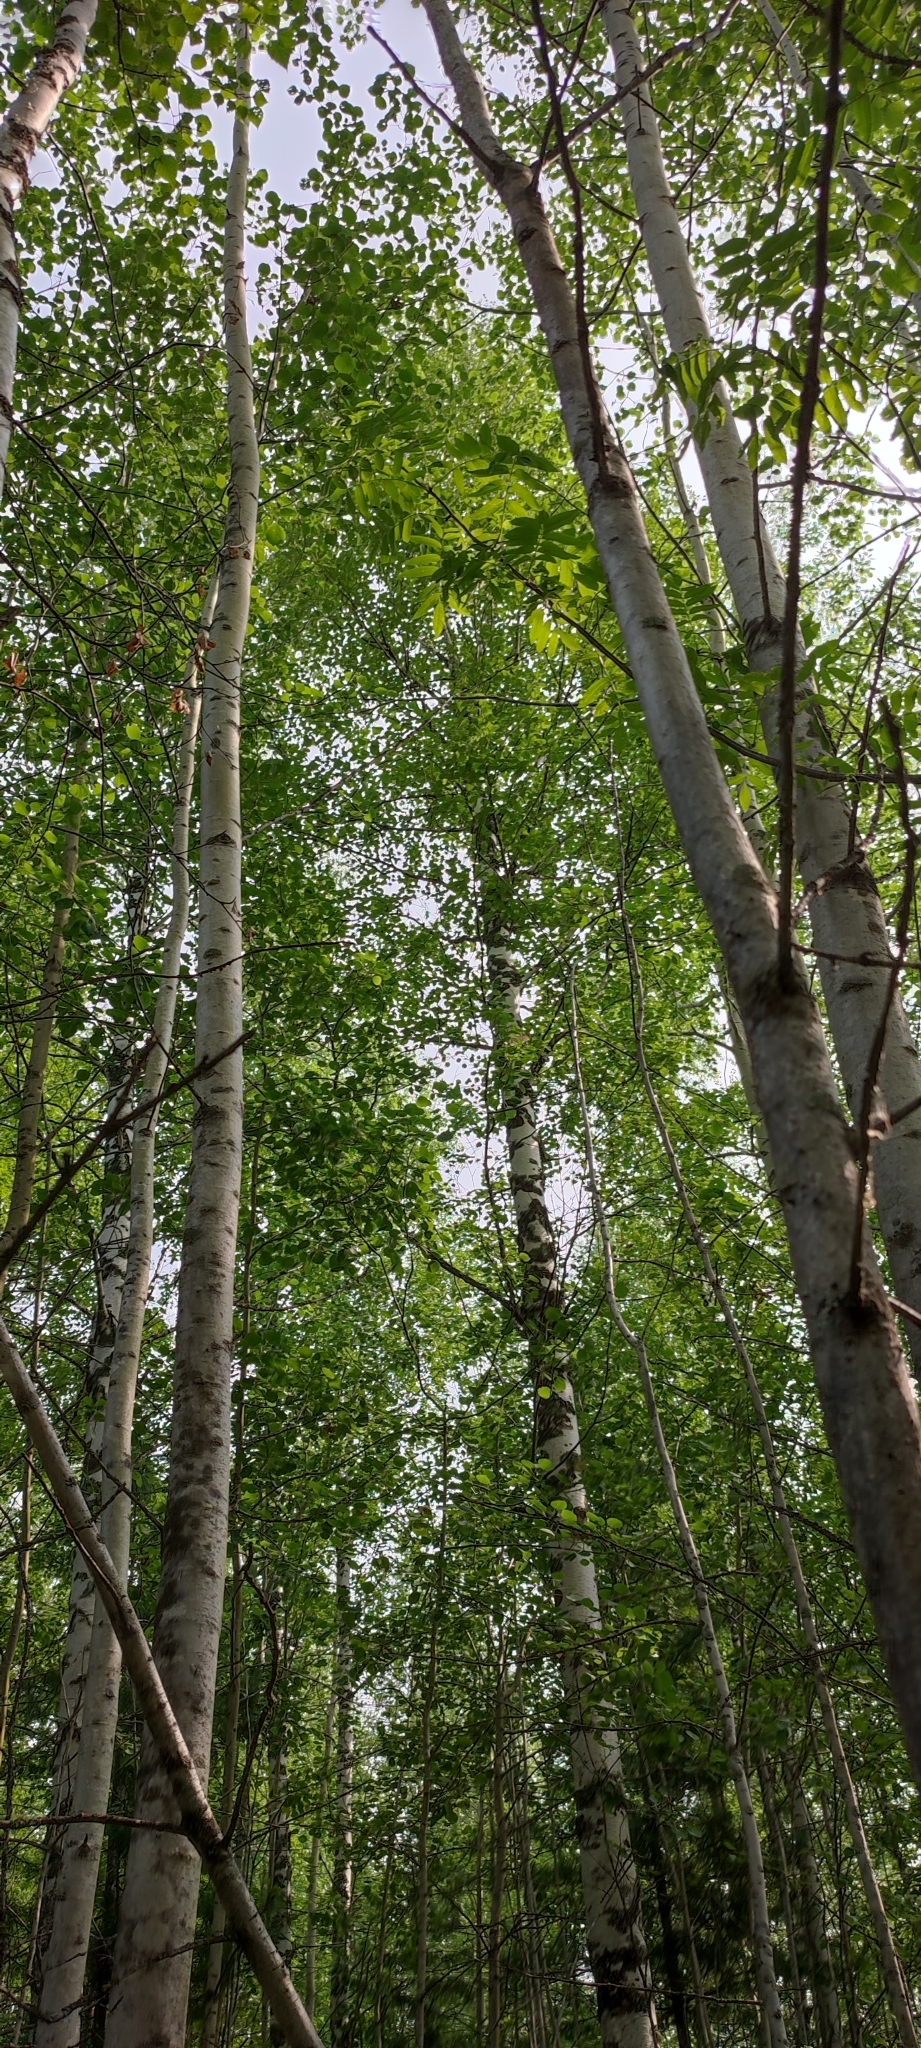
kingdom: Plantae
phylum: Tracheophyta
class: Magnoliopsida
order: Malpighiales
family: Salicaceae
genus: Populus
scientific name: Populus tremula
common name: European aspen
